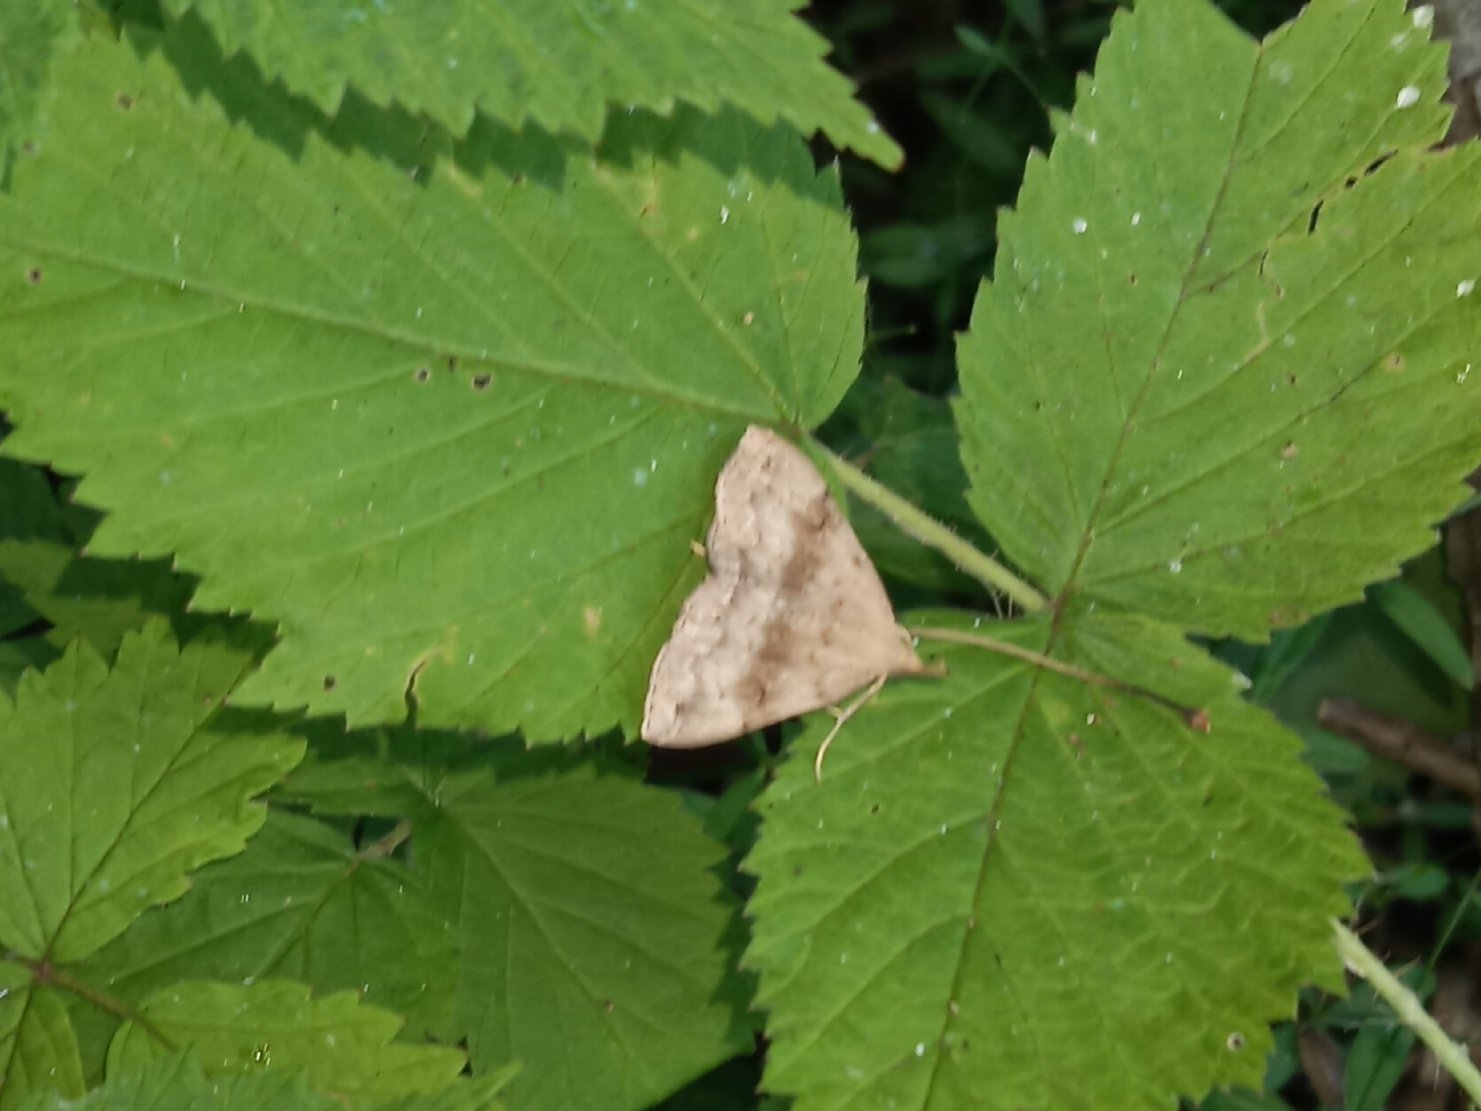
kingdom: Animalia
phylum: Arthropoda
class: Insecta
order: Lepidoptera
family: Erebidae
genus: Phalaenostola
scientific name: Phalaenostola eumelusalis
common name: Dark phalaenostola moth
